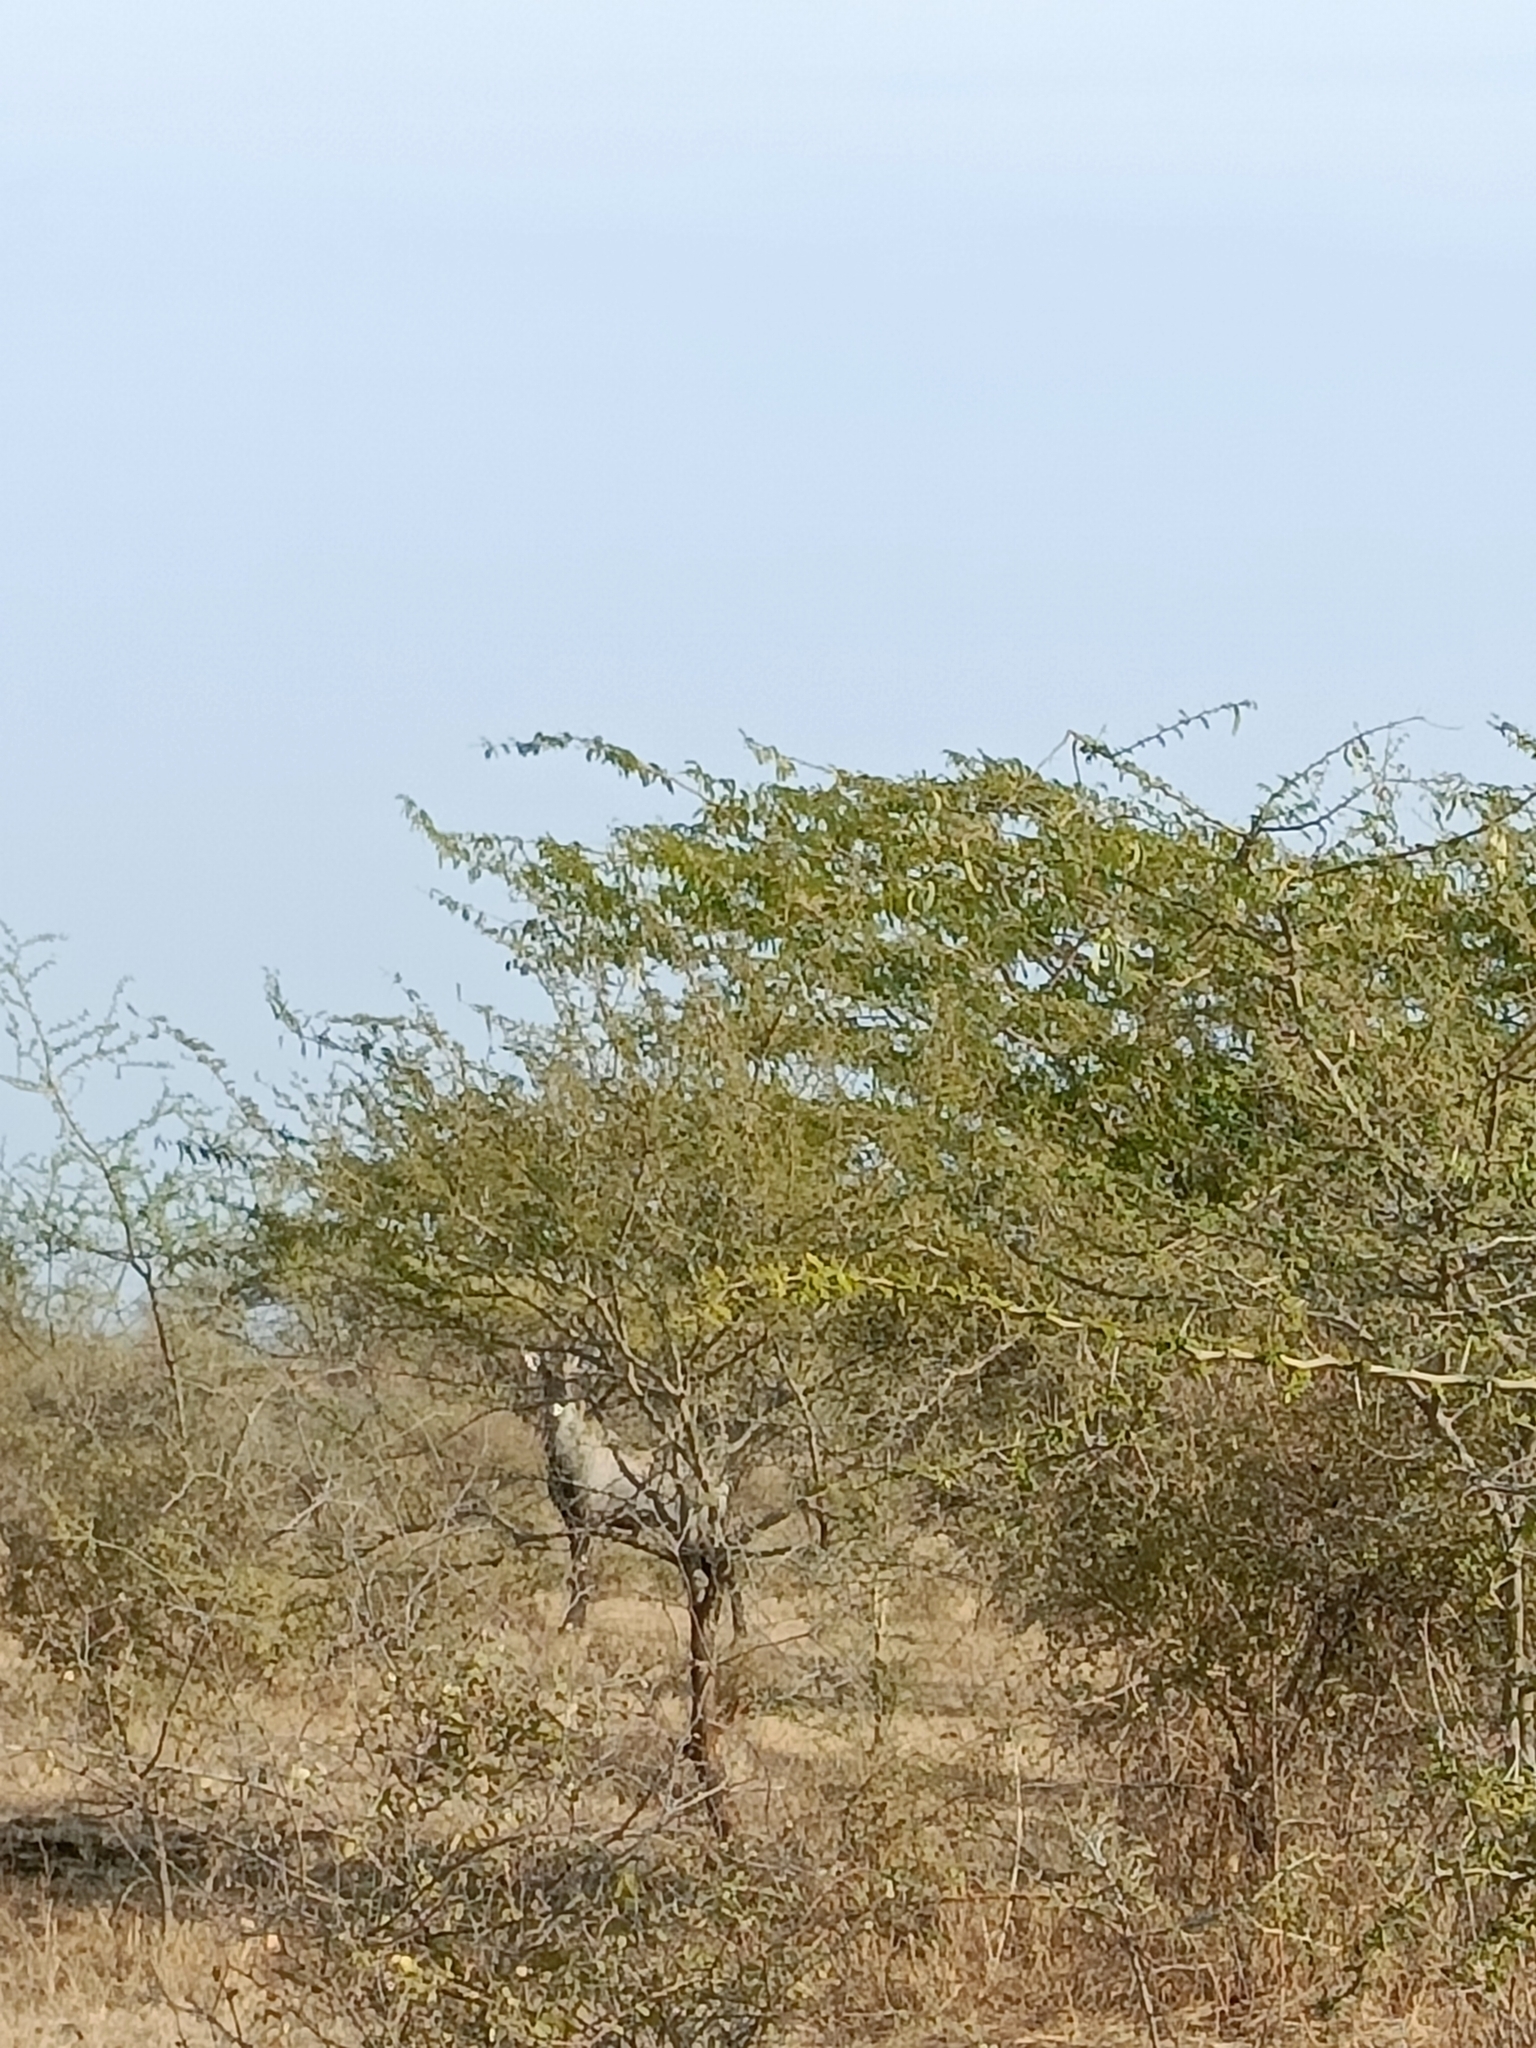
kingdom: Animalia
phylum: Chordata
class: Mammalia
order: Artiodactyla
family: Bovidae
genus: Boselaphus
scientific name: Boselaphus tragocamelus
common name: Nilgai
